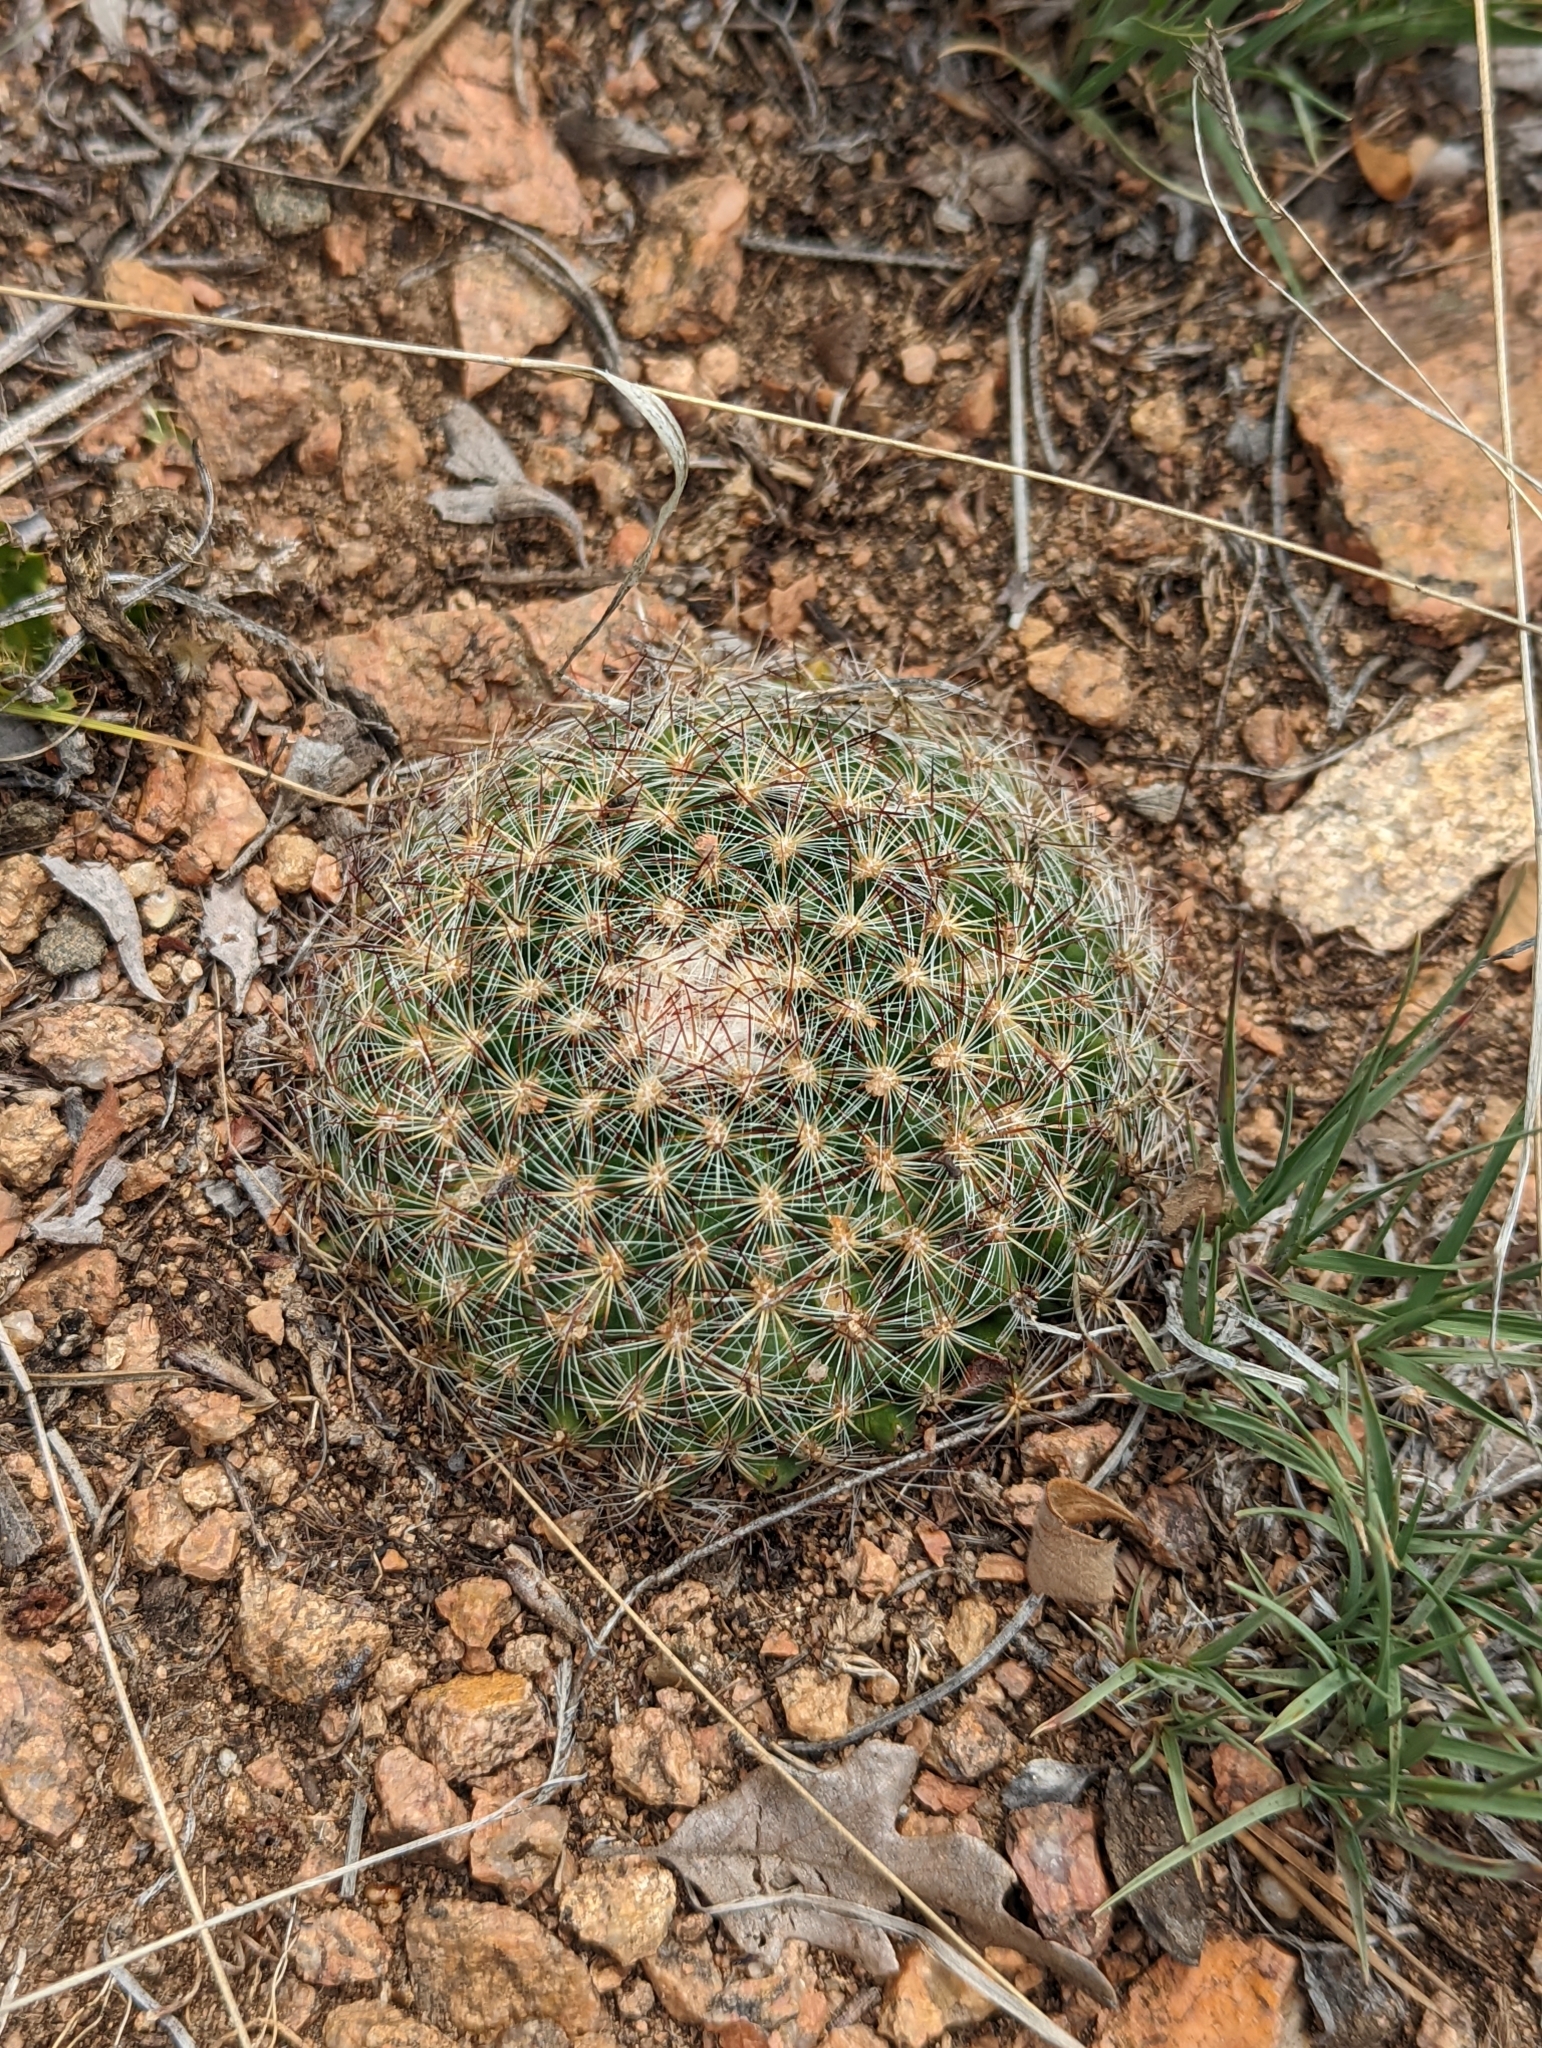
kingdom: Plantae
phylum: Tracheophyta
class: Magnoliopsida
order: Caryophyllales
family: Cactaceae
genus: Pediocactus
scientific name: Pediocactus simpsonii
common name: Simpson's hedgehog cactus
